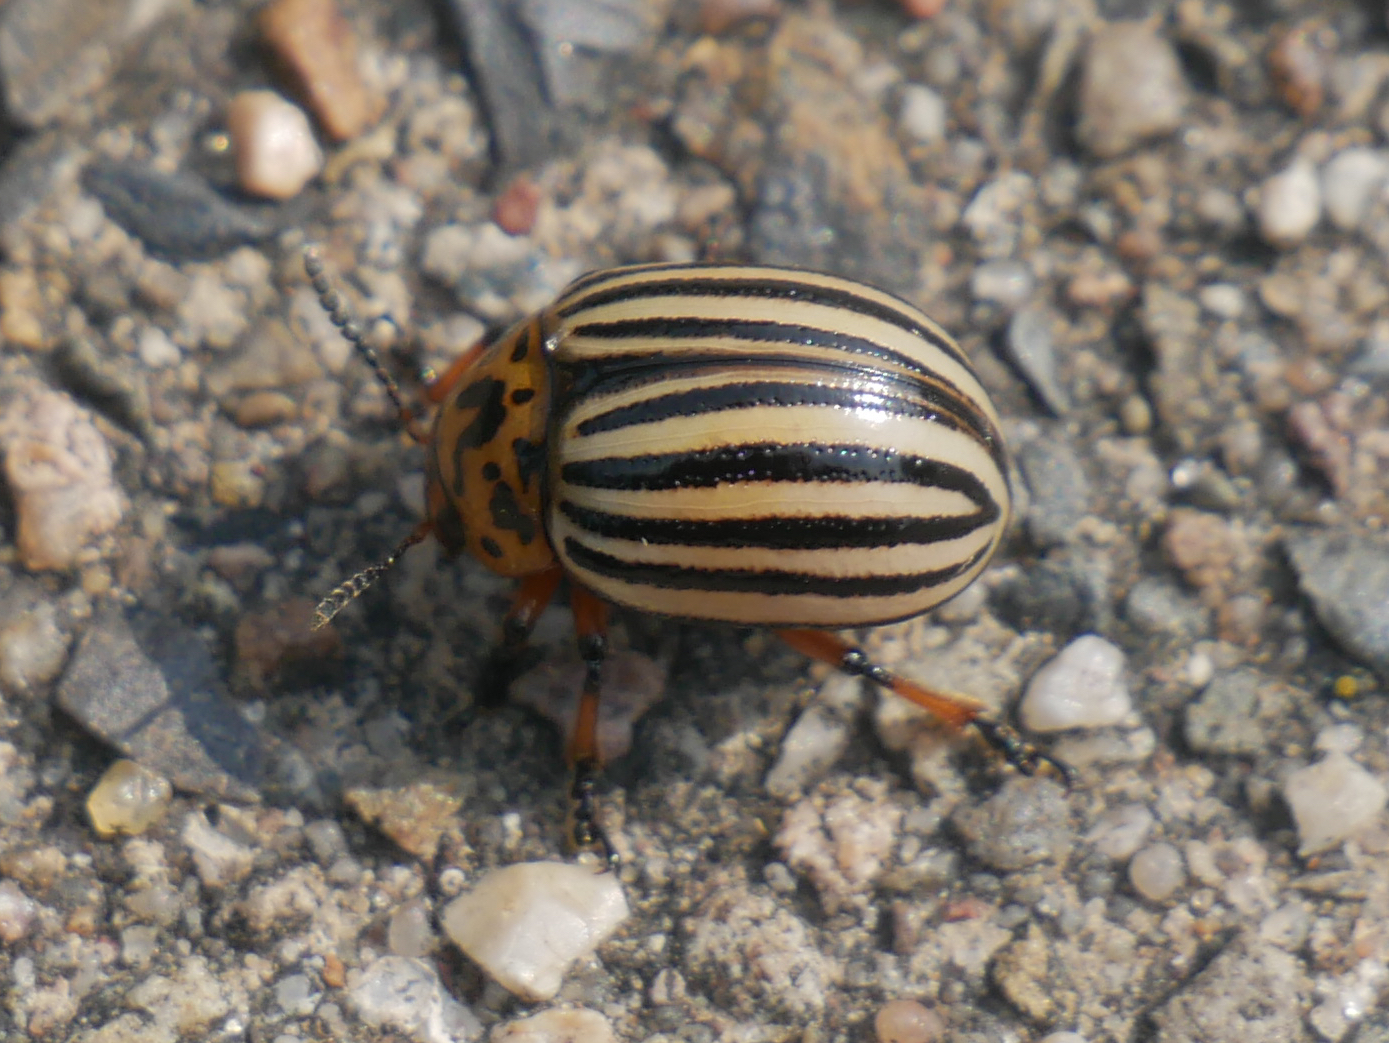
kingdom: Animalia
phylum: Arthropoda
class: Insecta
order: Coleoptera
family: Chrysomelidae
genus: Leptinotarsa
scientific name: Leptinotarsa decemlineata
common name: Colorado potato beetle
